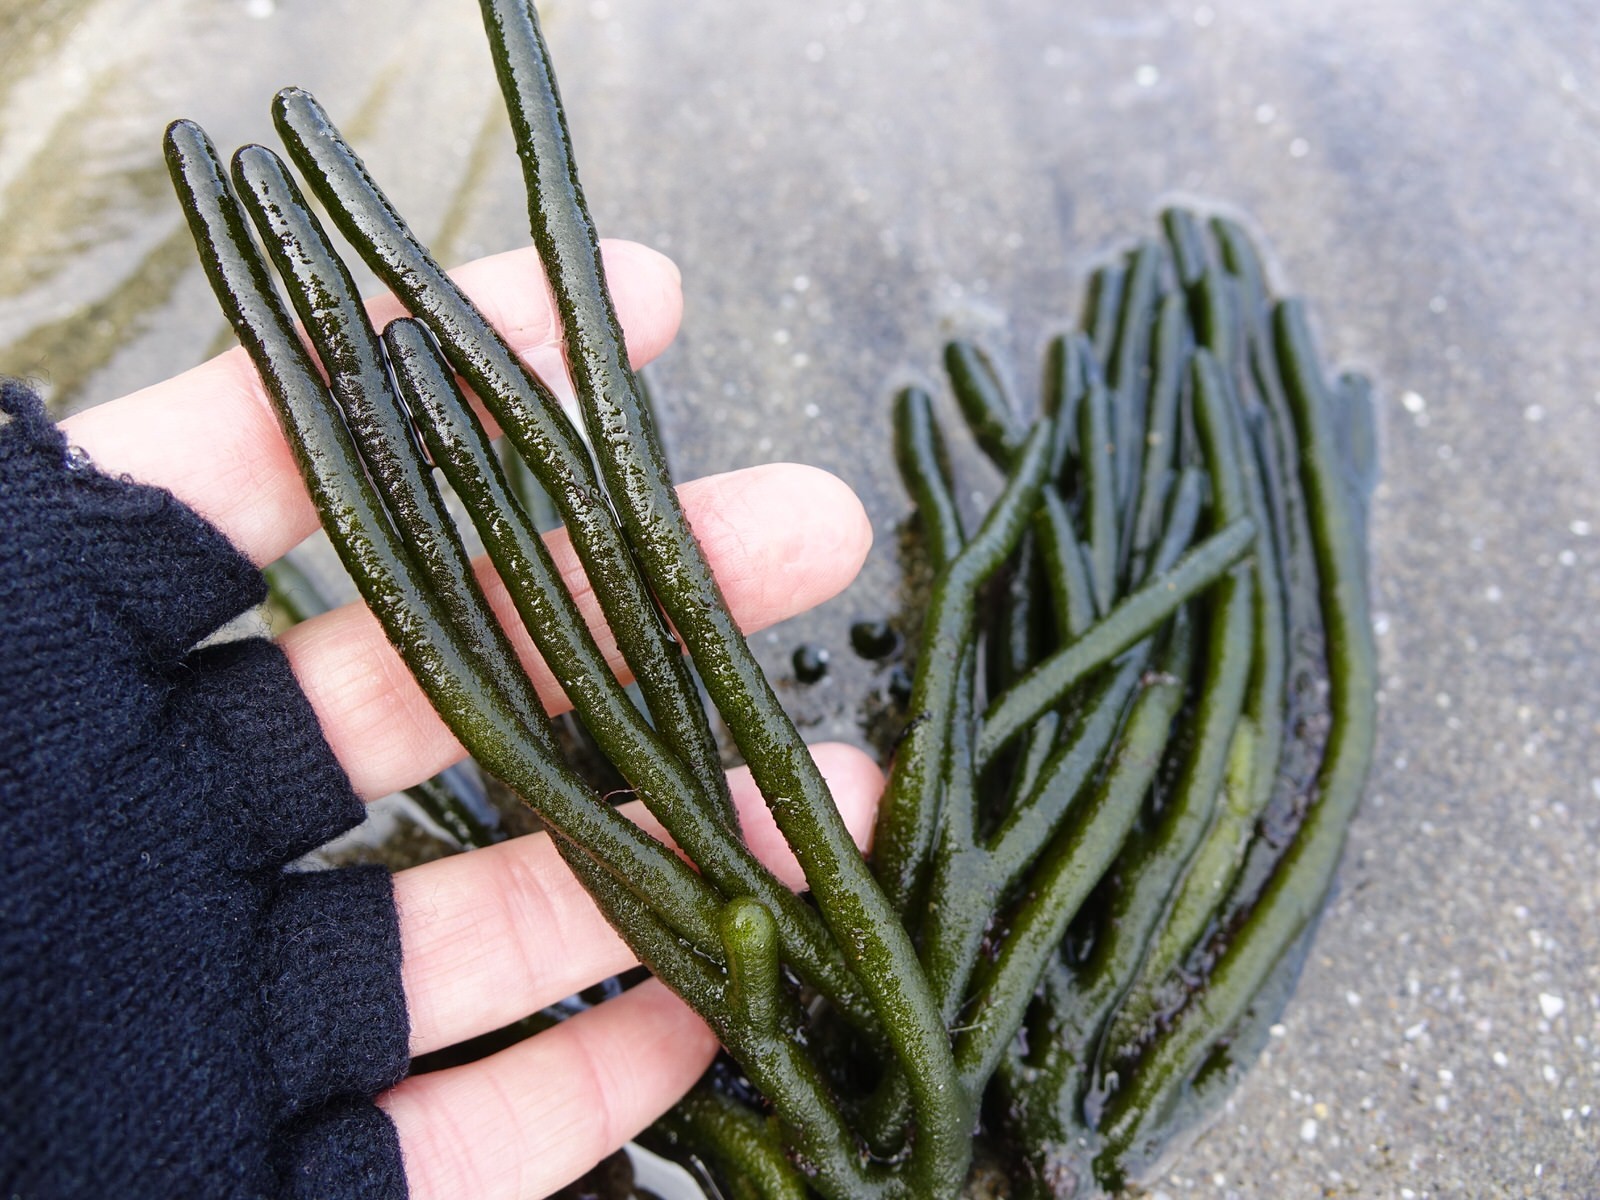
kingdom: Plantae
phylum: Chlorophyta
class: Ulvophyceae
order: Bryopsidales
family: Codiaceae
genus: Codium
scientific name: Codium fragile
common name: Dead man's fingers
